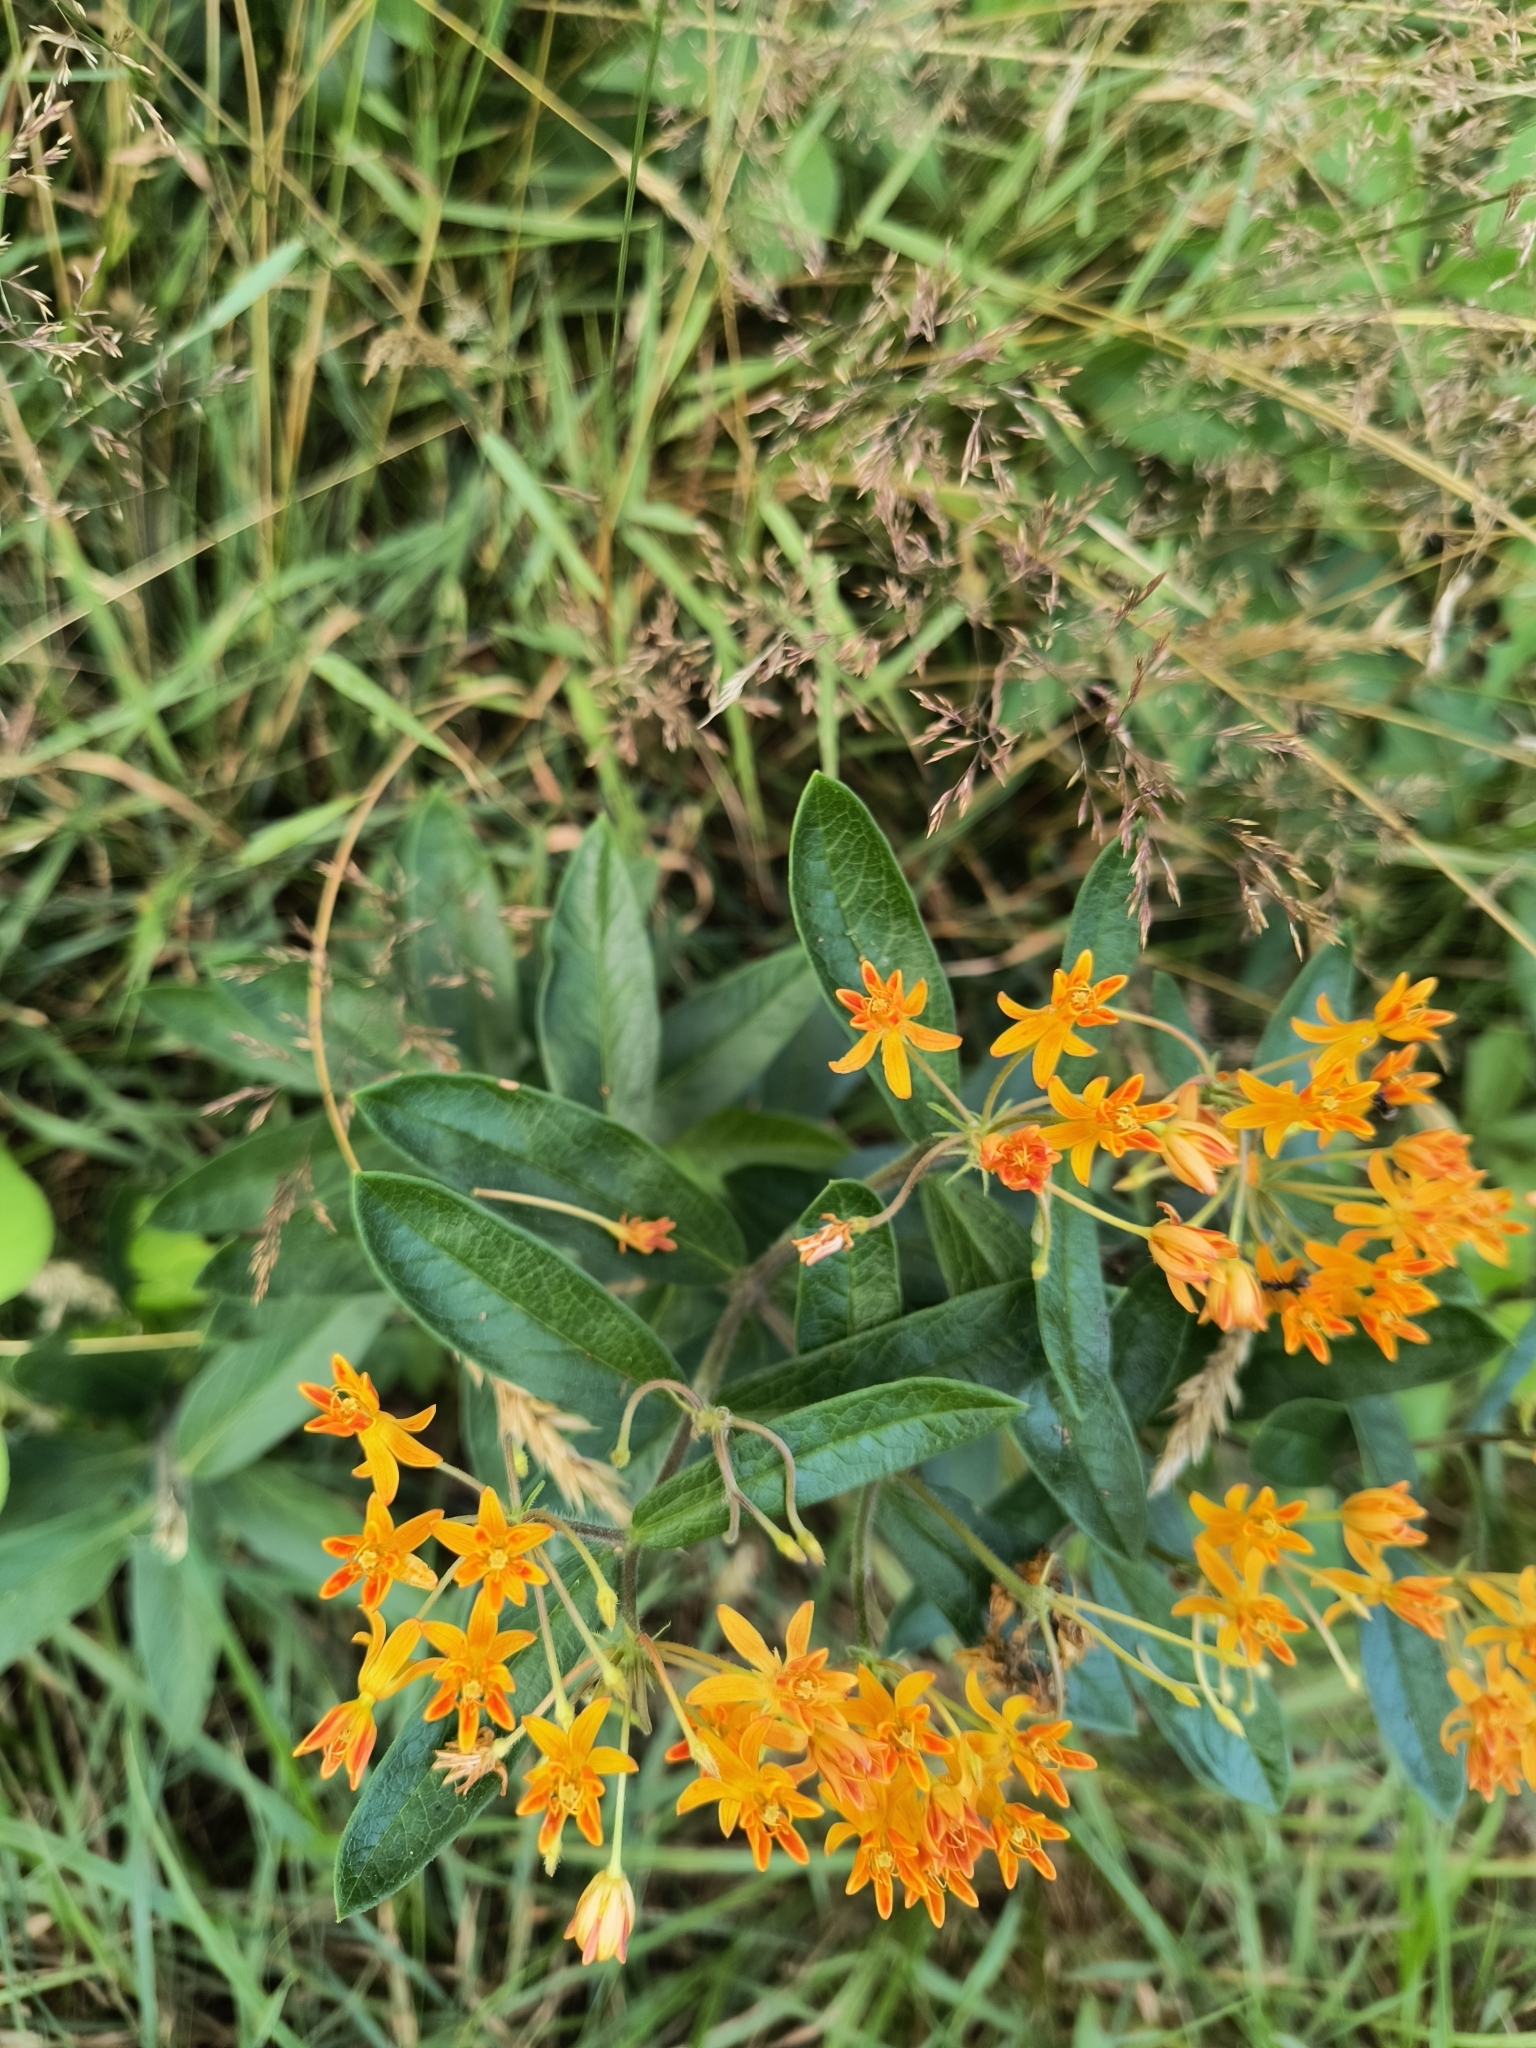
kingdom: Plantae
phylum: Tracheophyta
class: Magnoliopsida
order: Gentianales
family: Apocynaceae
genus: Asclepias
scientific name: Asclepias tuberosa
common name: Butterfly milkweed
